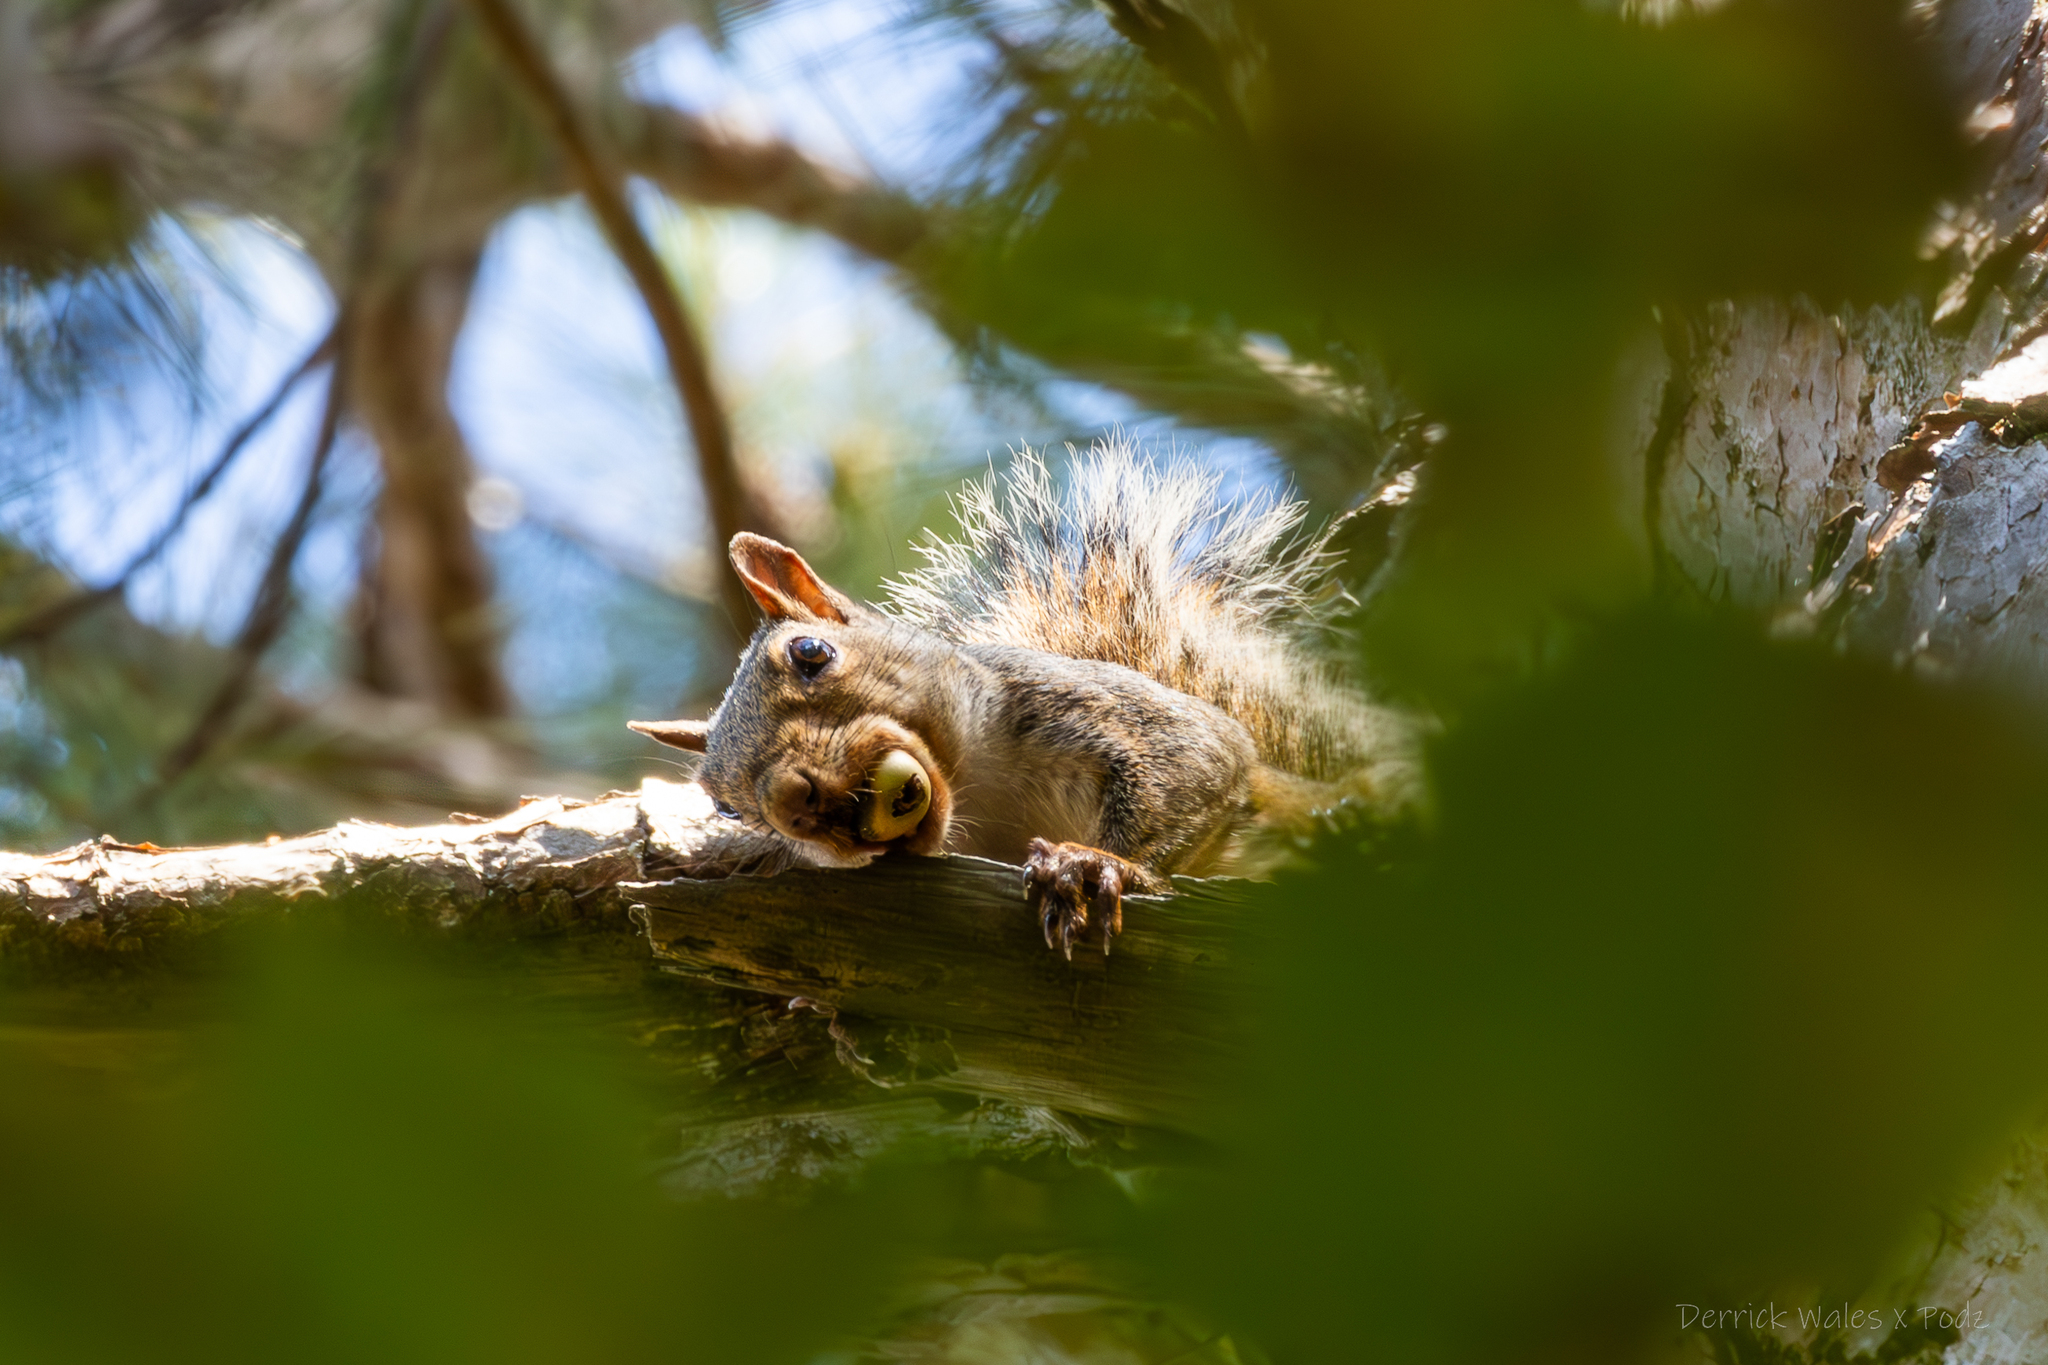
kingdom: Animalia
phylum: Chordata
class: Mammalia
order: Rodentia
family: Sciuridae
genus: Sciurus
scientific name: Sciurus carolinensis
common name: Eastern gray squirrel
